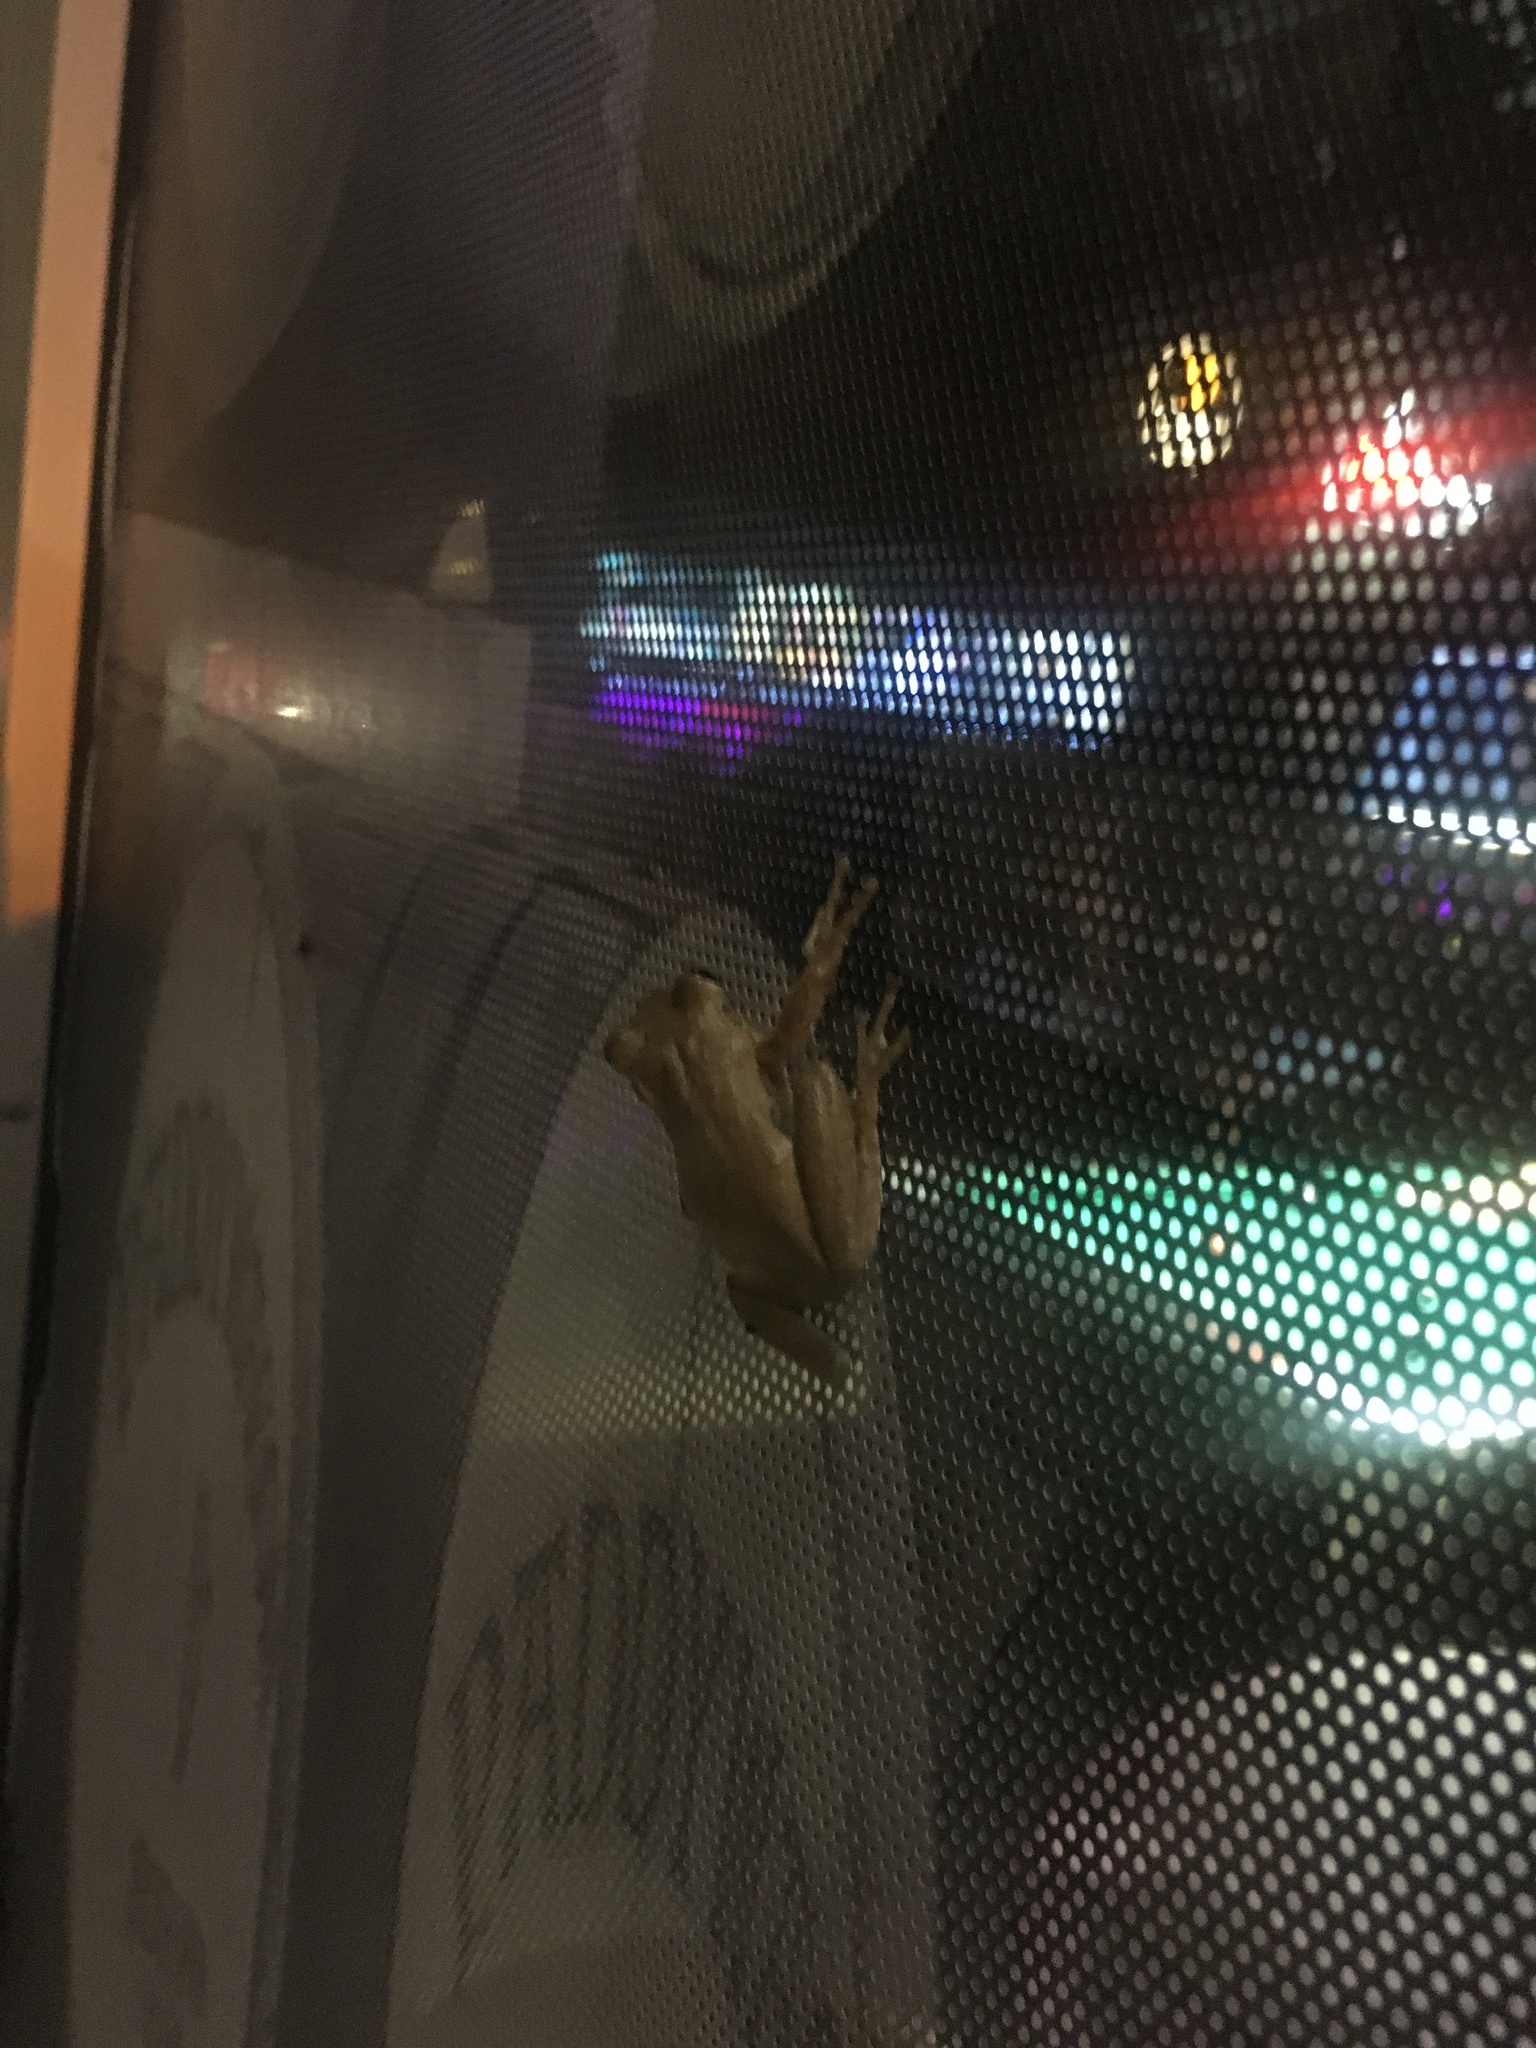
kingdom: Animalia
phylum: Chordata
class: Amphibia
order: Anura
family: Hylidae
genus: Osteopilus
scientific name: Osteopilus septentrionalis
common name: Cuban treefrog
